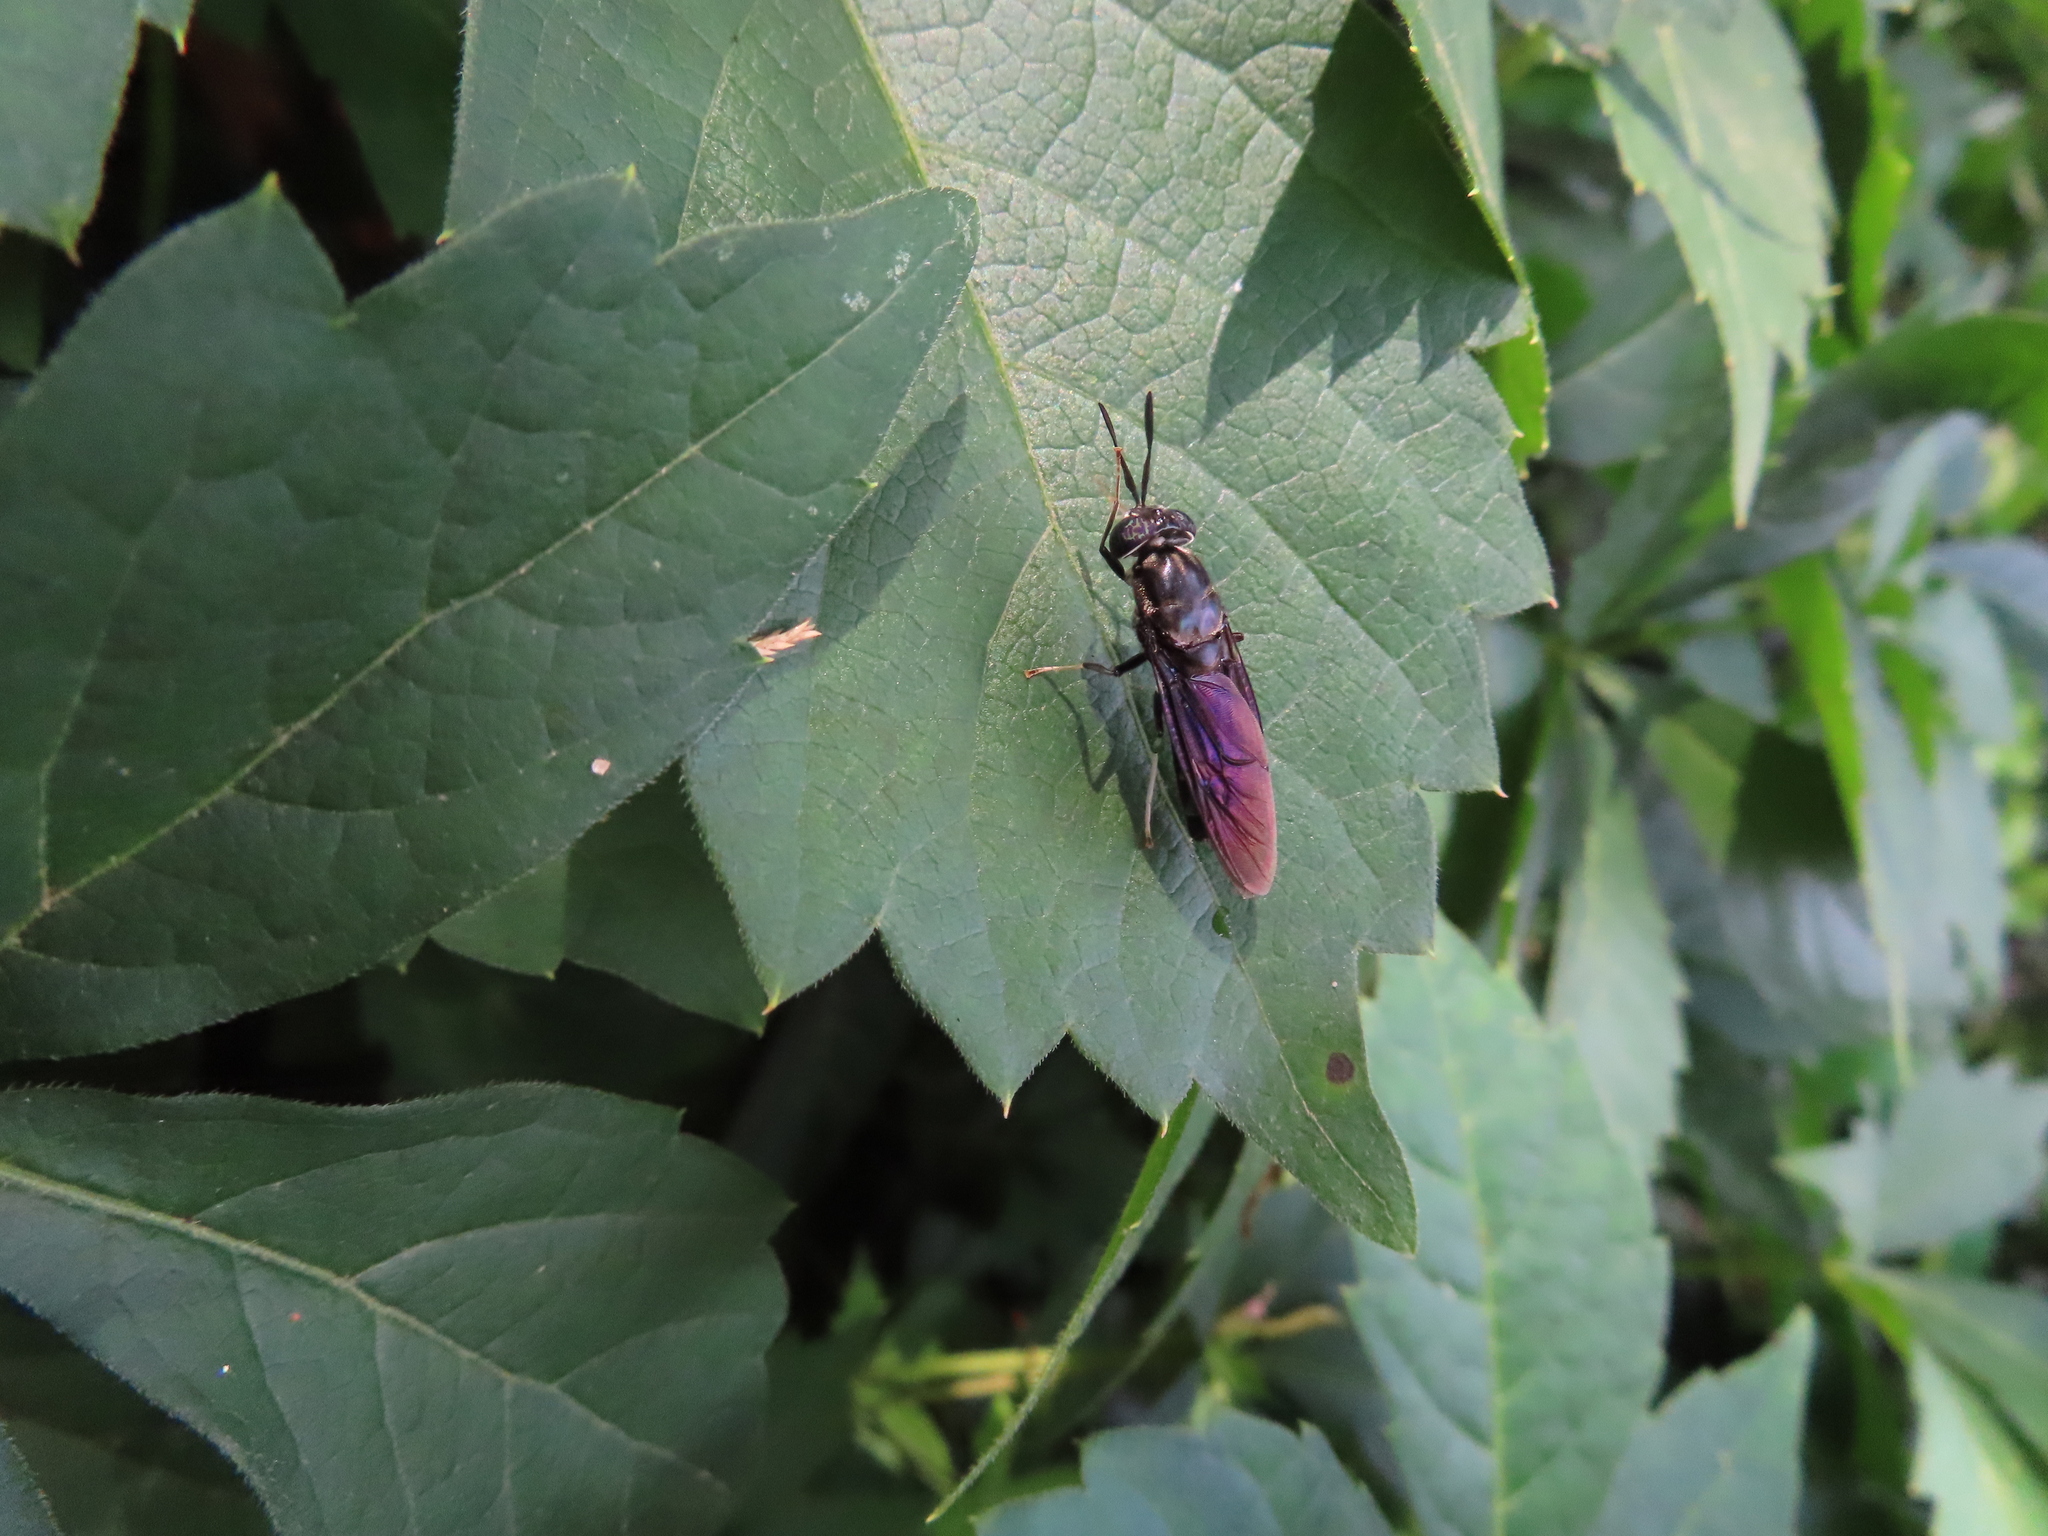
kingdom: Animalia
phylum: Arthropoda
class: Insecta
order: Diptera
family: Stratiomyidae
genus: Hermetia
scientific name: Hermetia illucens
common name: Black soldier fly
